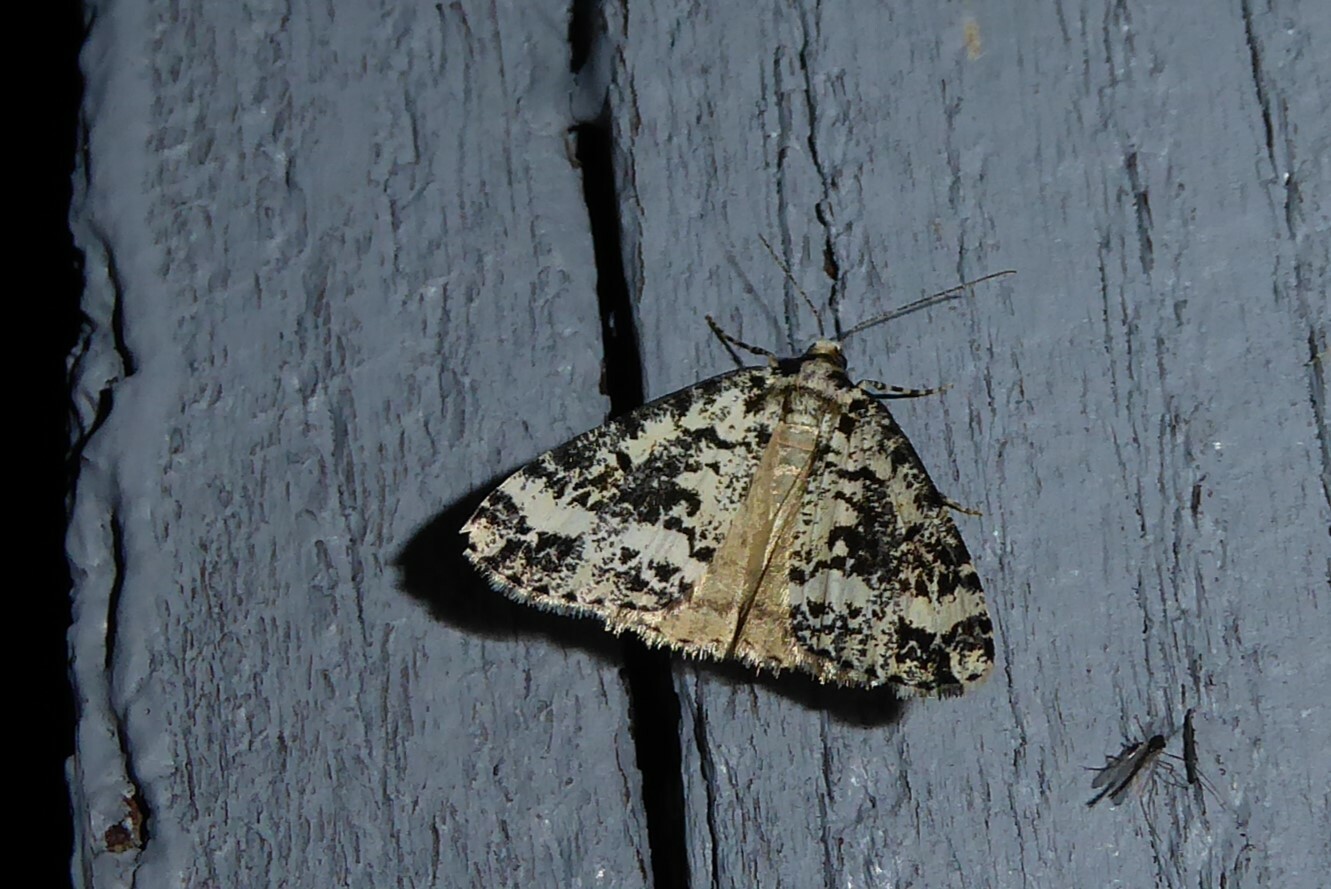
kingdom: Animalia
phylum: Arthropoda
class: Insecta
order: Lepidoptera
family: Geometridae
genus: Pseudocoremia
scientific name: Pseudocoremia leucelaea
